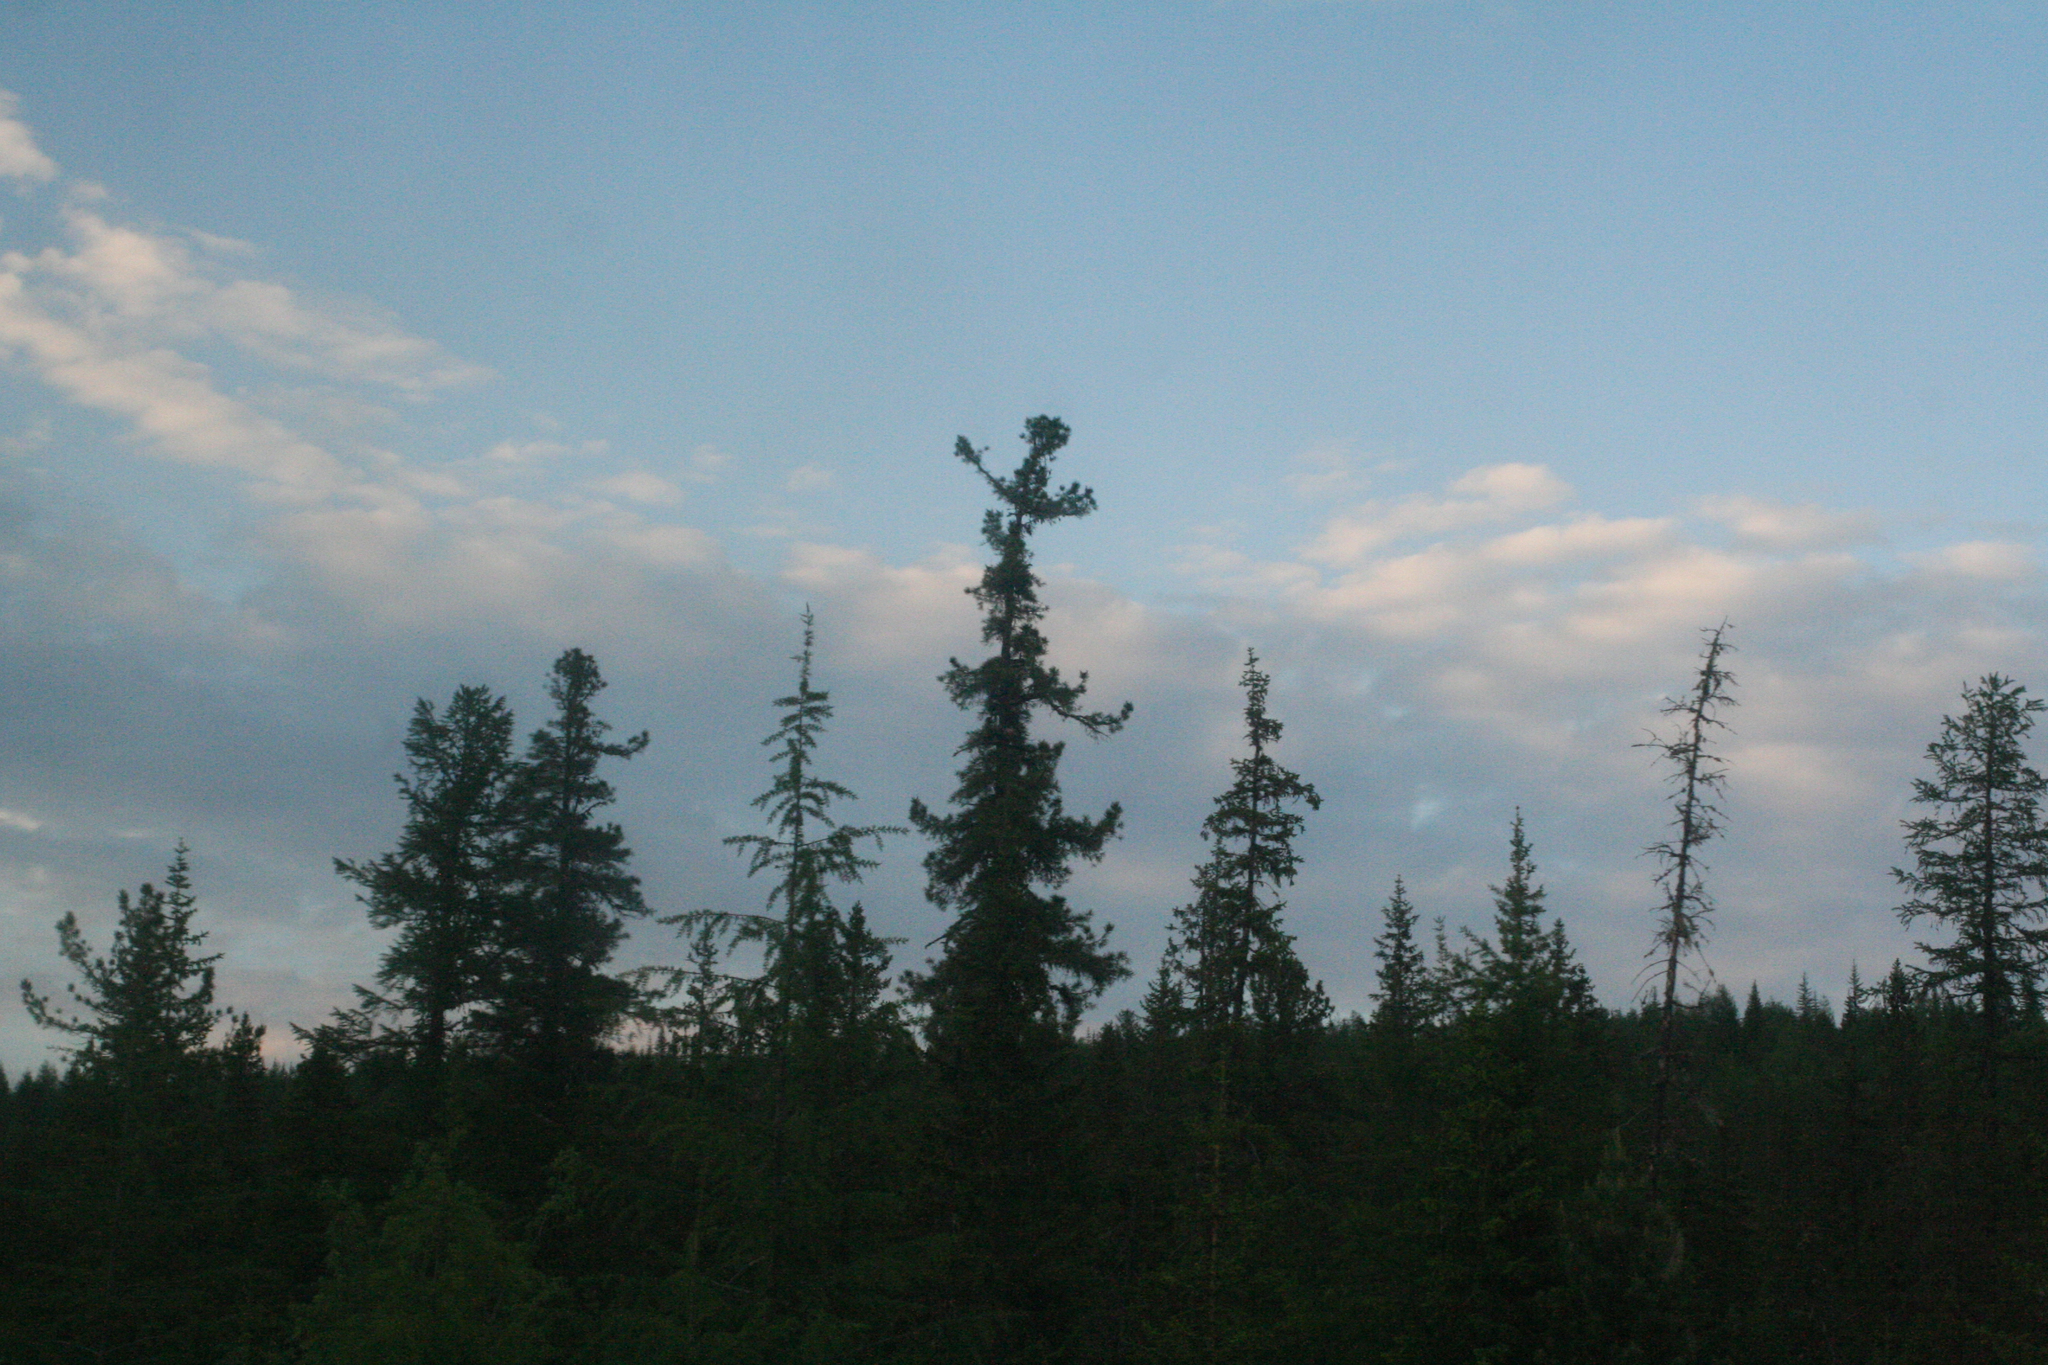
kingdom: Plantae
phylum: Tracheophyta
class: Pinopsida
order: Pinales
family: Pinaceae
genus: Pinus
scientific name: Pinus sibirica
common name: Siberian pine
